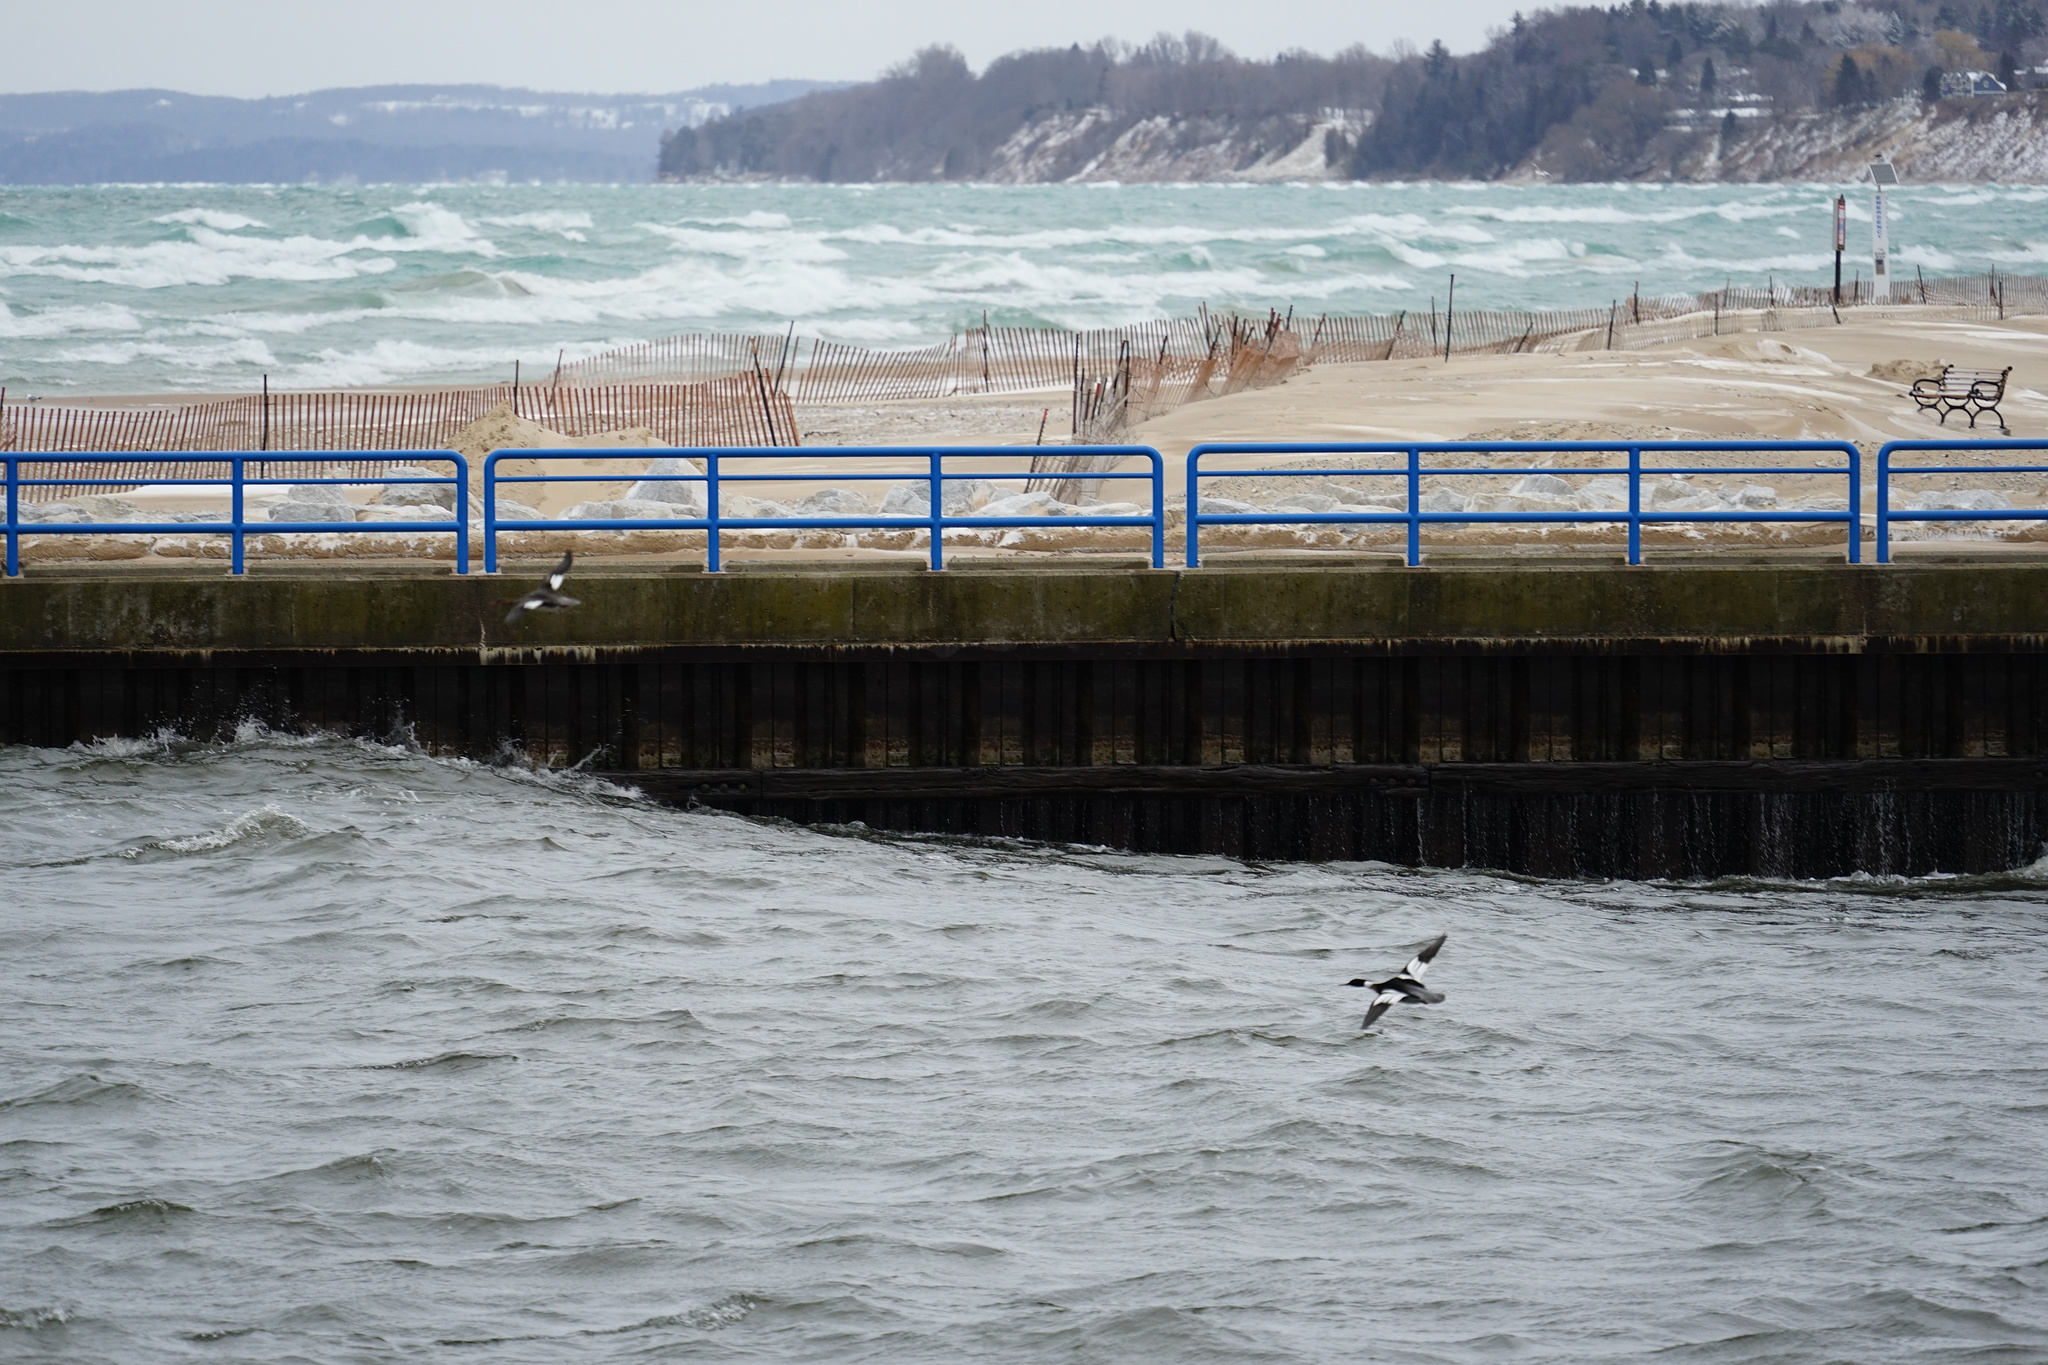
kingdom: Animalia
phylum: Chordata
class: Aves
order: Anseriformes
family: Anatidae
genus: Mergus
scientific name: Mergus serrator
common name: Red-breasted merganser
